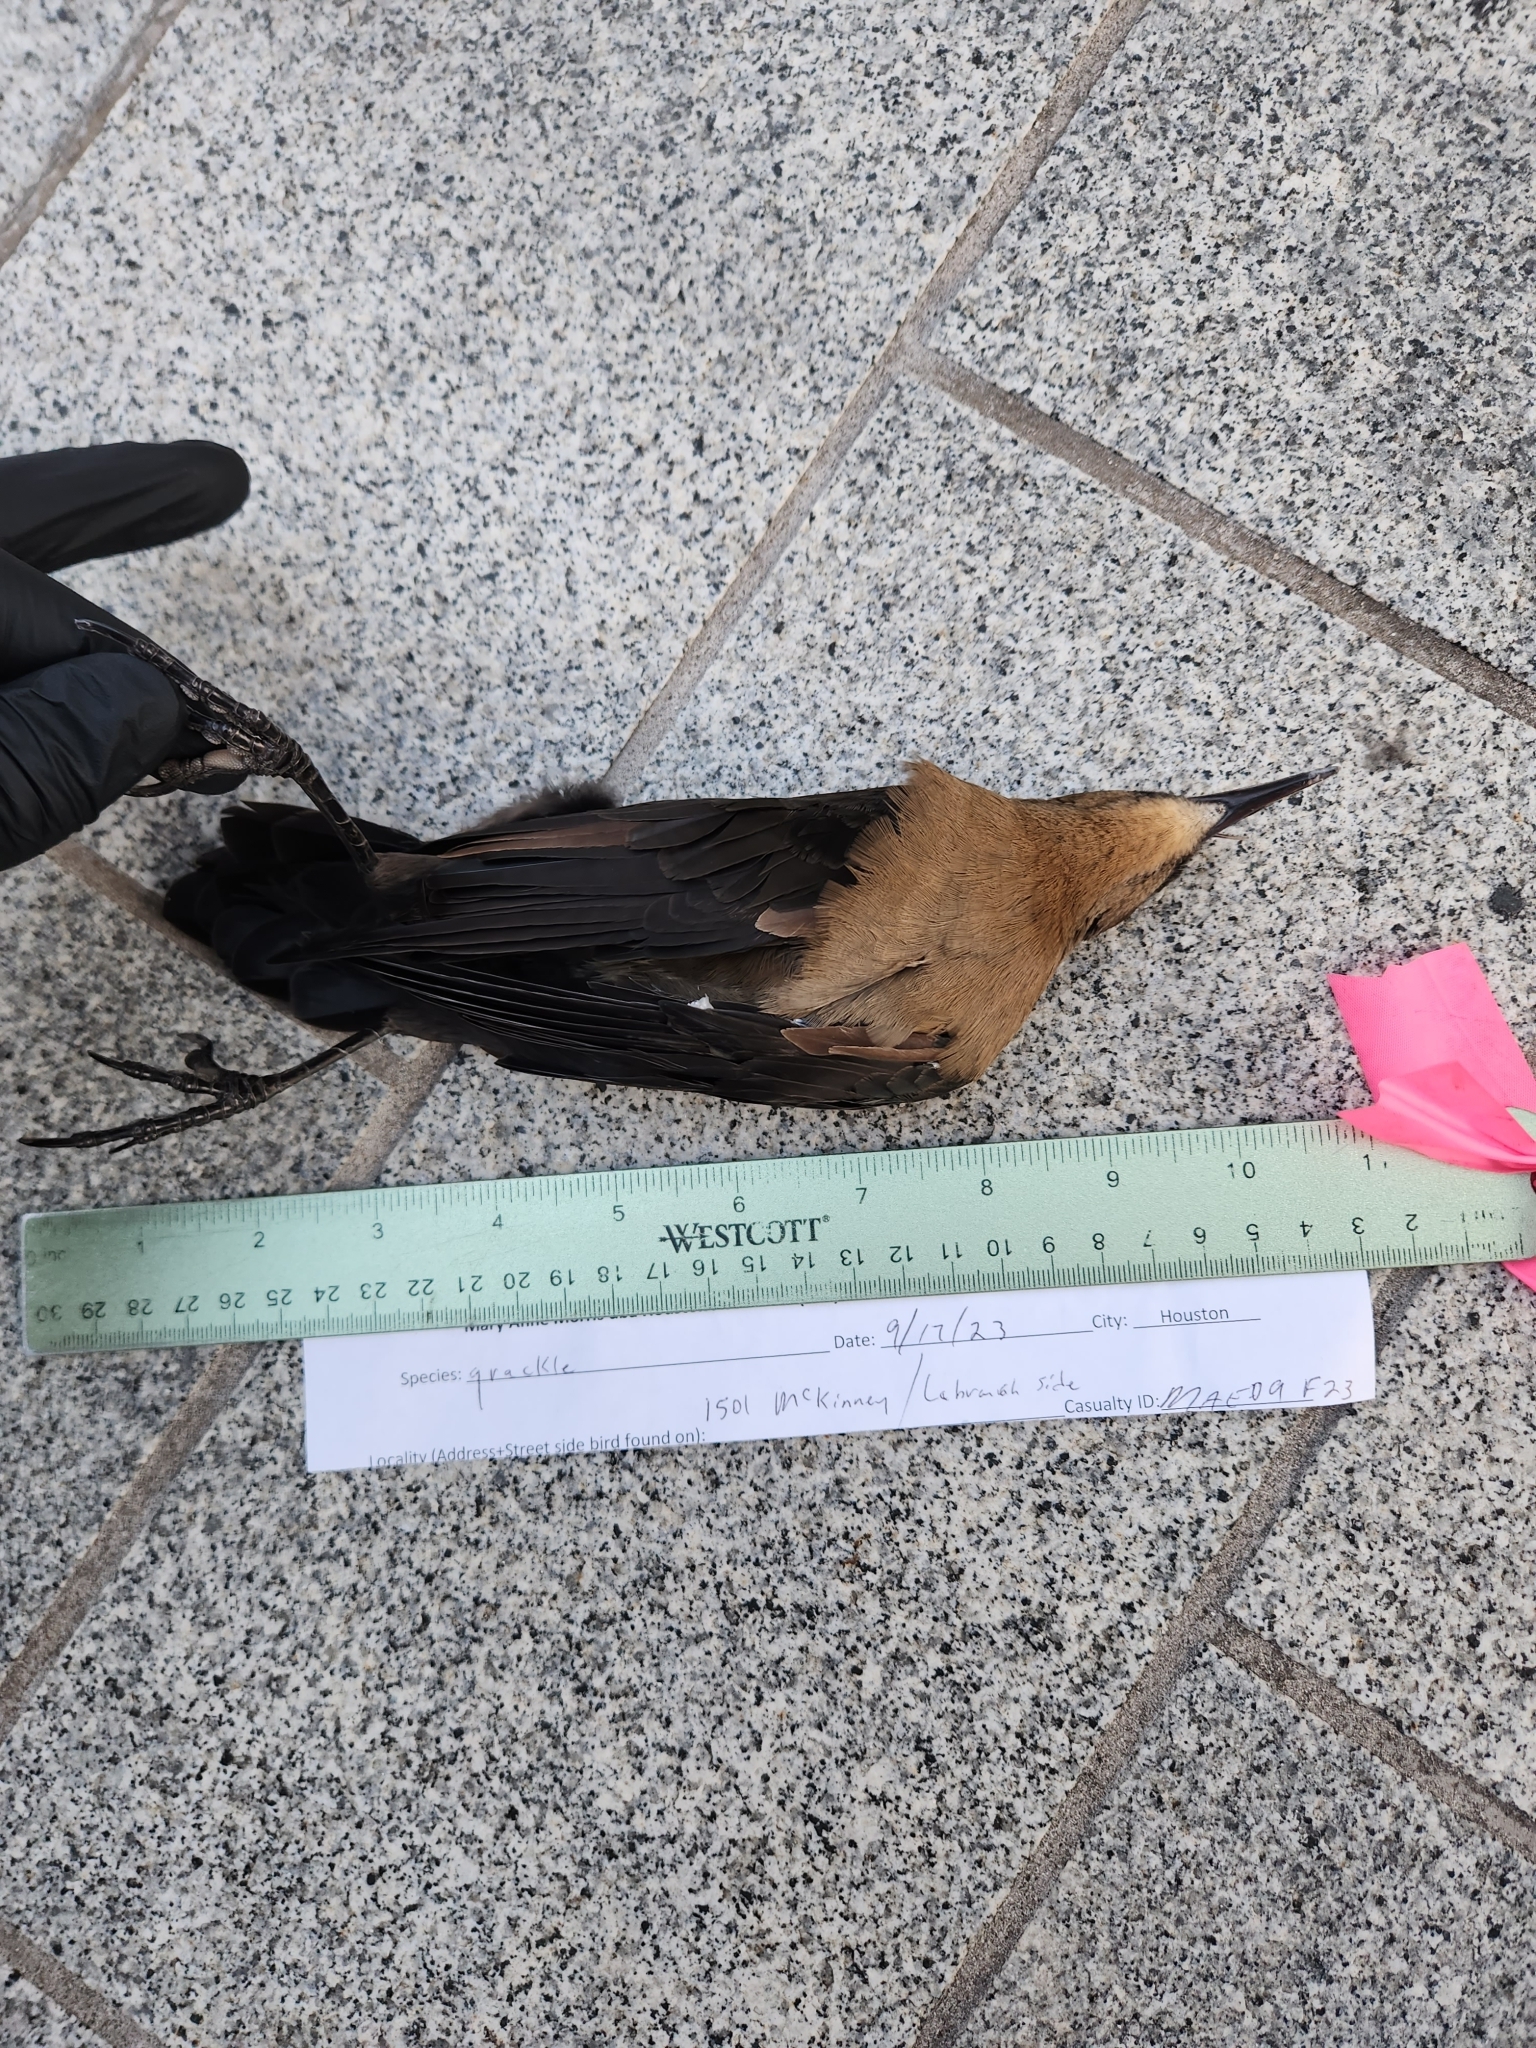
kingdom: Animalia
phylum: Chordata
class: Aves
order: Passeriformes
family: Icteridae
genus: Quiscalus
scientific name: Quiscalus mexicanus
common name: Great-tailed grackle
